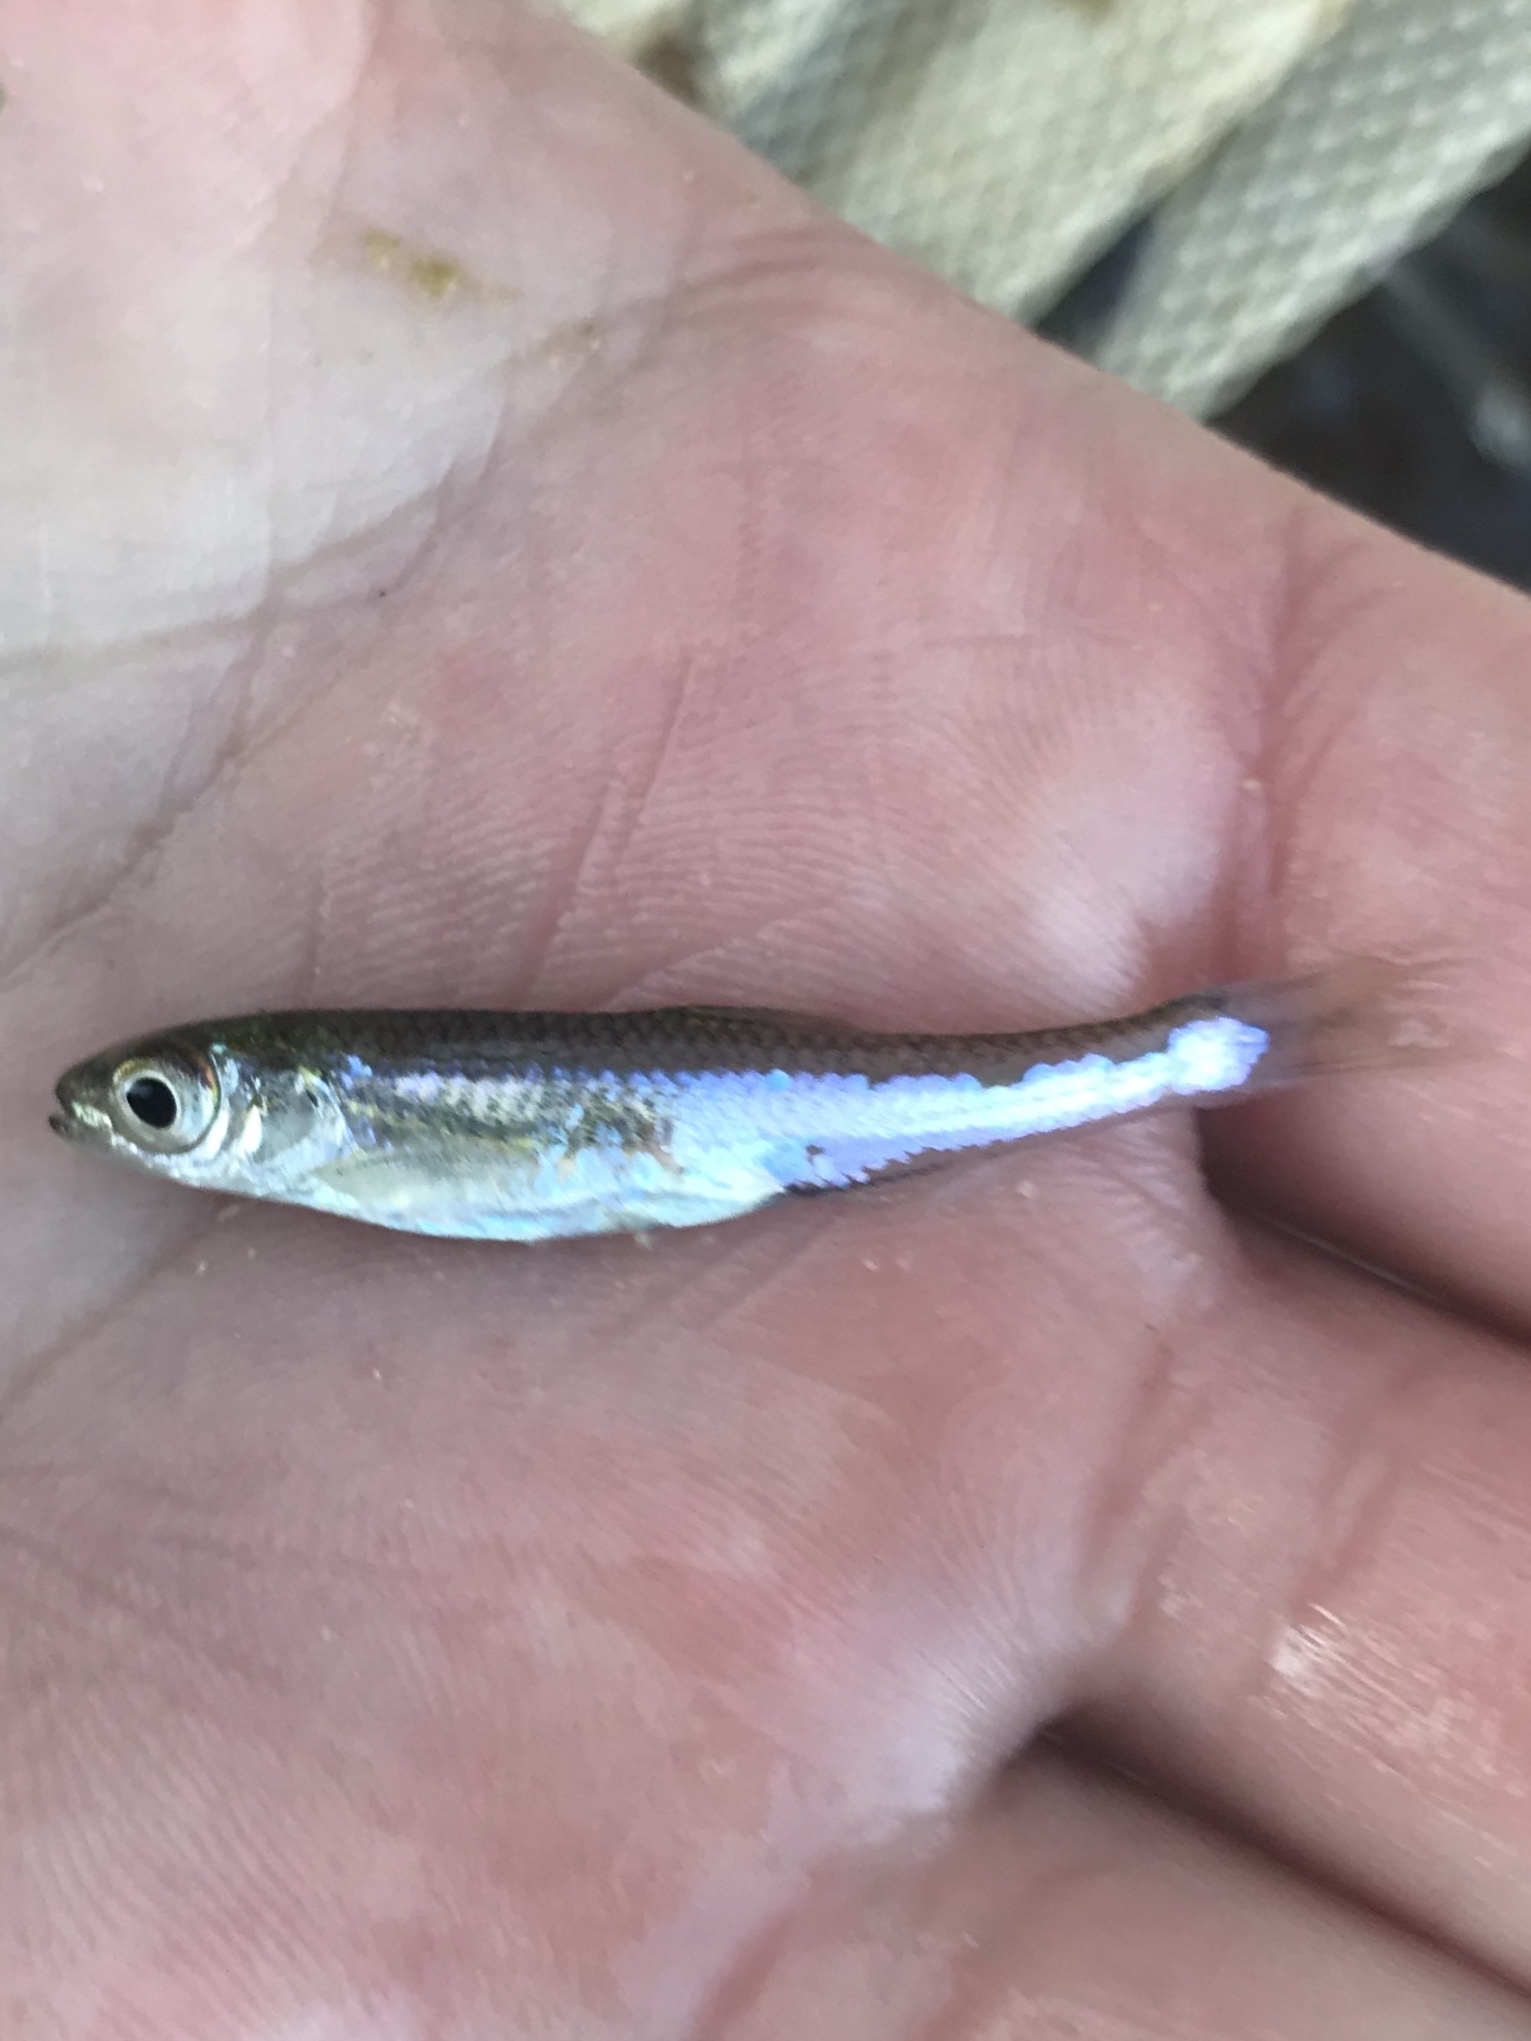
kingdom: Animalia
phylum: Chordata
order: Cypriniformes
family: Cyprinidae
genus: Notropis
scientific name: Notropis amabilis
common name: Texas shiner
